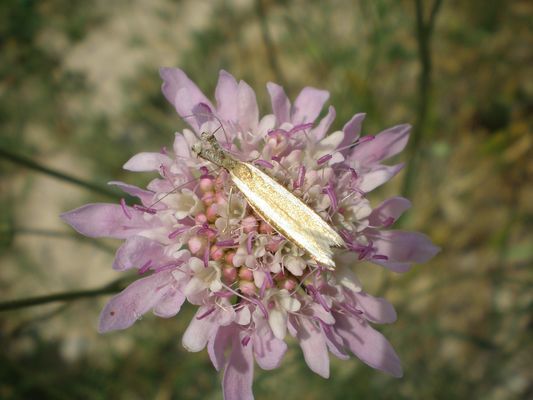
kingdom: Animalia
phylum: Arthropoda
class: Insecta
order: Lepidoptera
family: Oecophoridae
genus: Pleurota
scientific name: Pleurota aristella
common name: Southern streak
